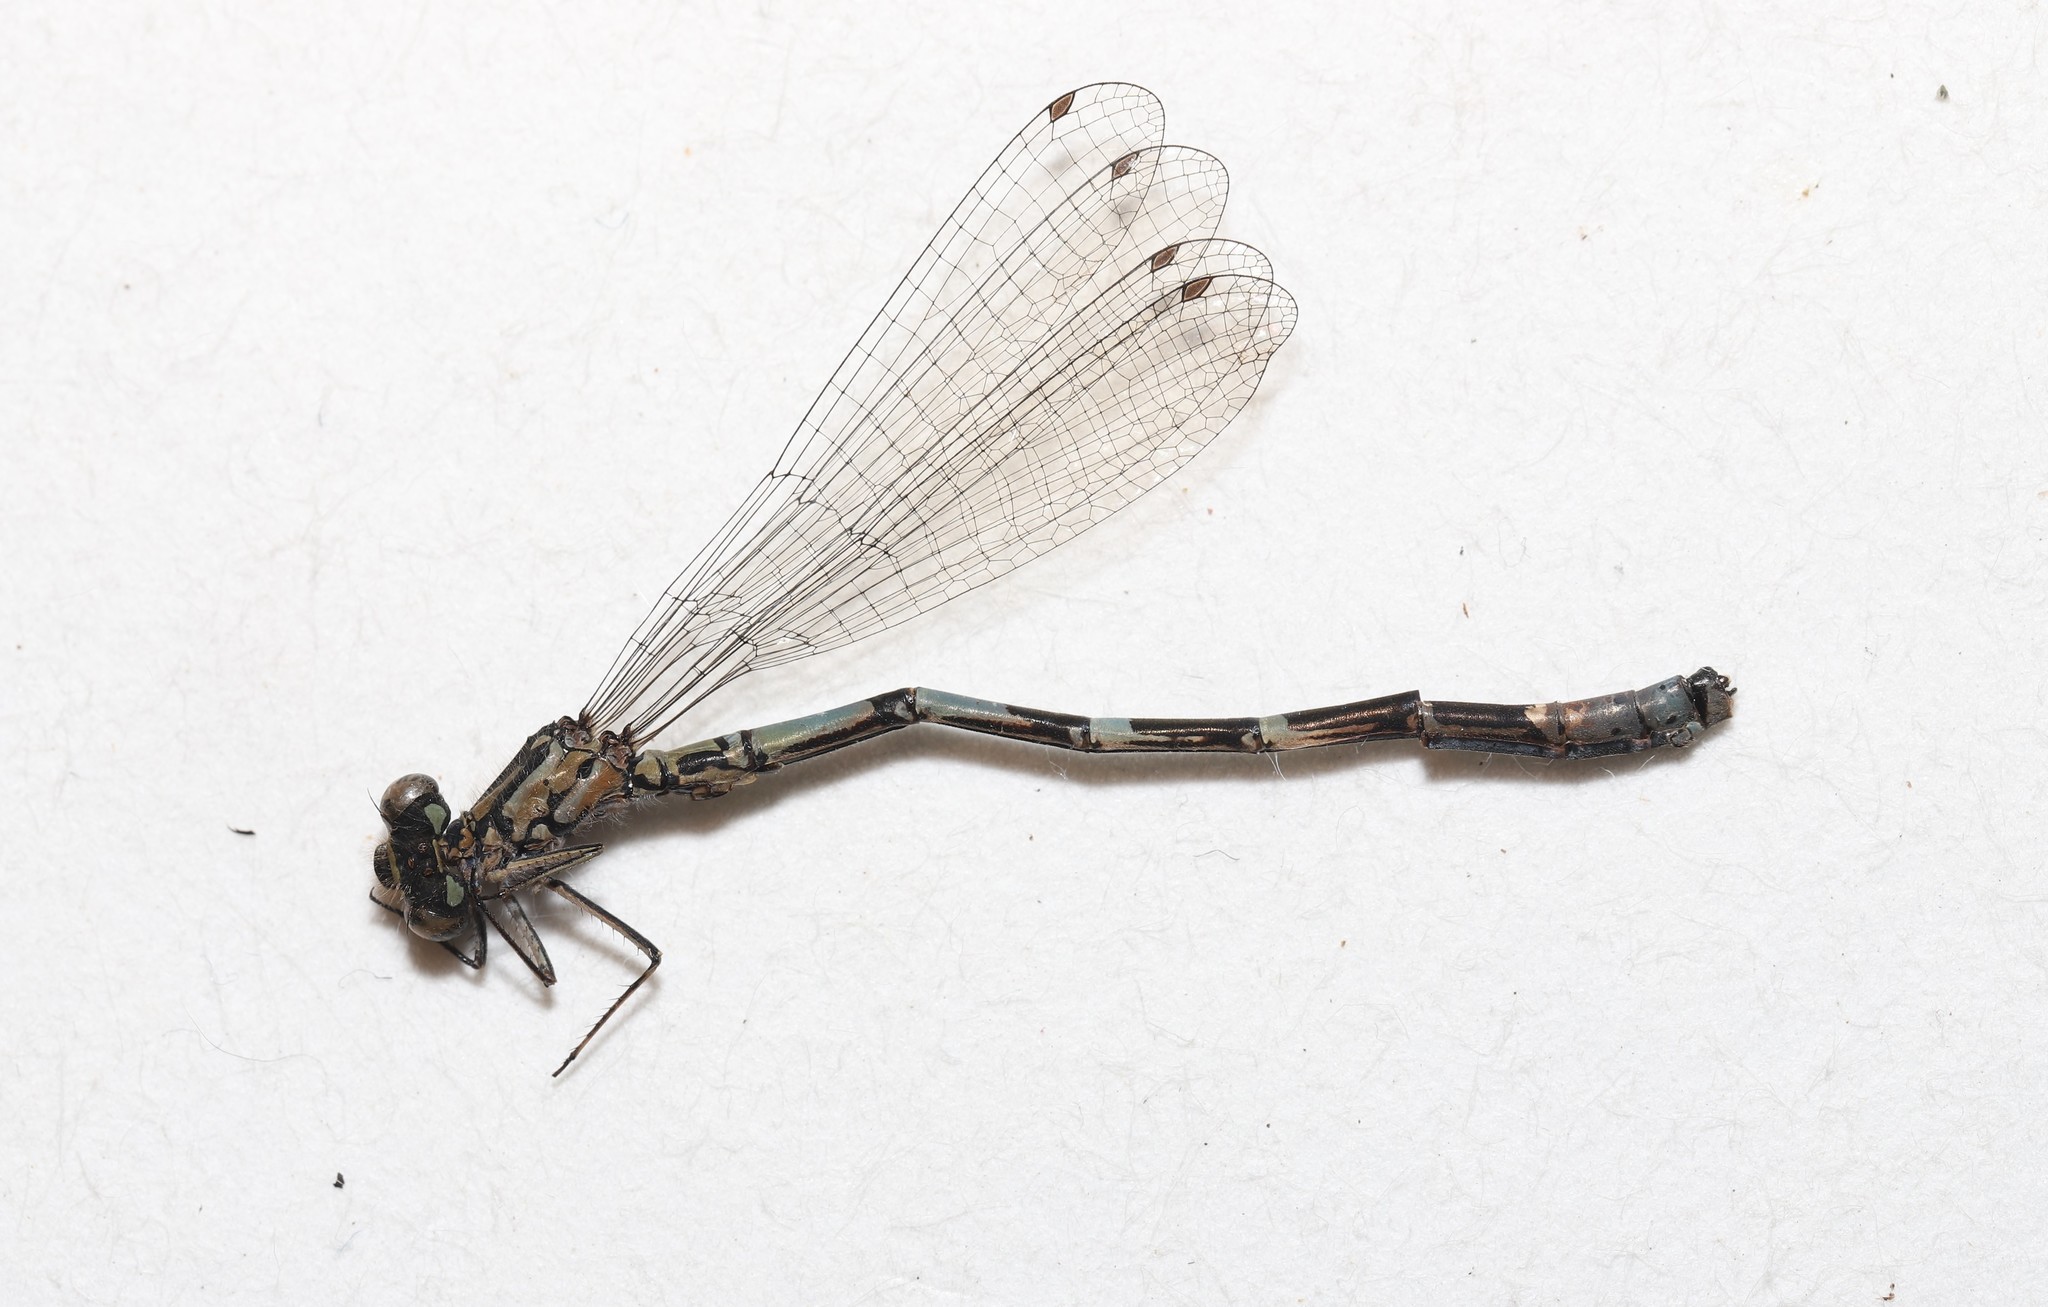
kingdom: Animalia
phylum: Arthropoda
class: Insecta
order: Odonata
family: Coenagrionidae
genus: Coenagrion
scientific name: Coenagrion interrogatum
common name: Subarctic bluet
